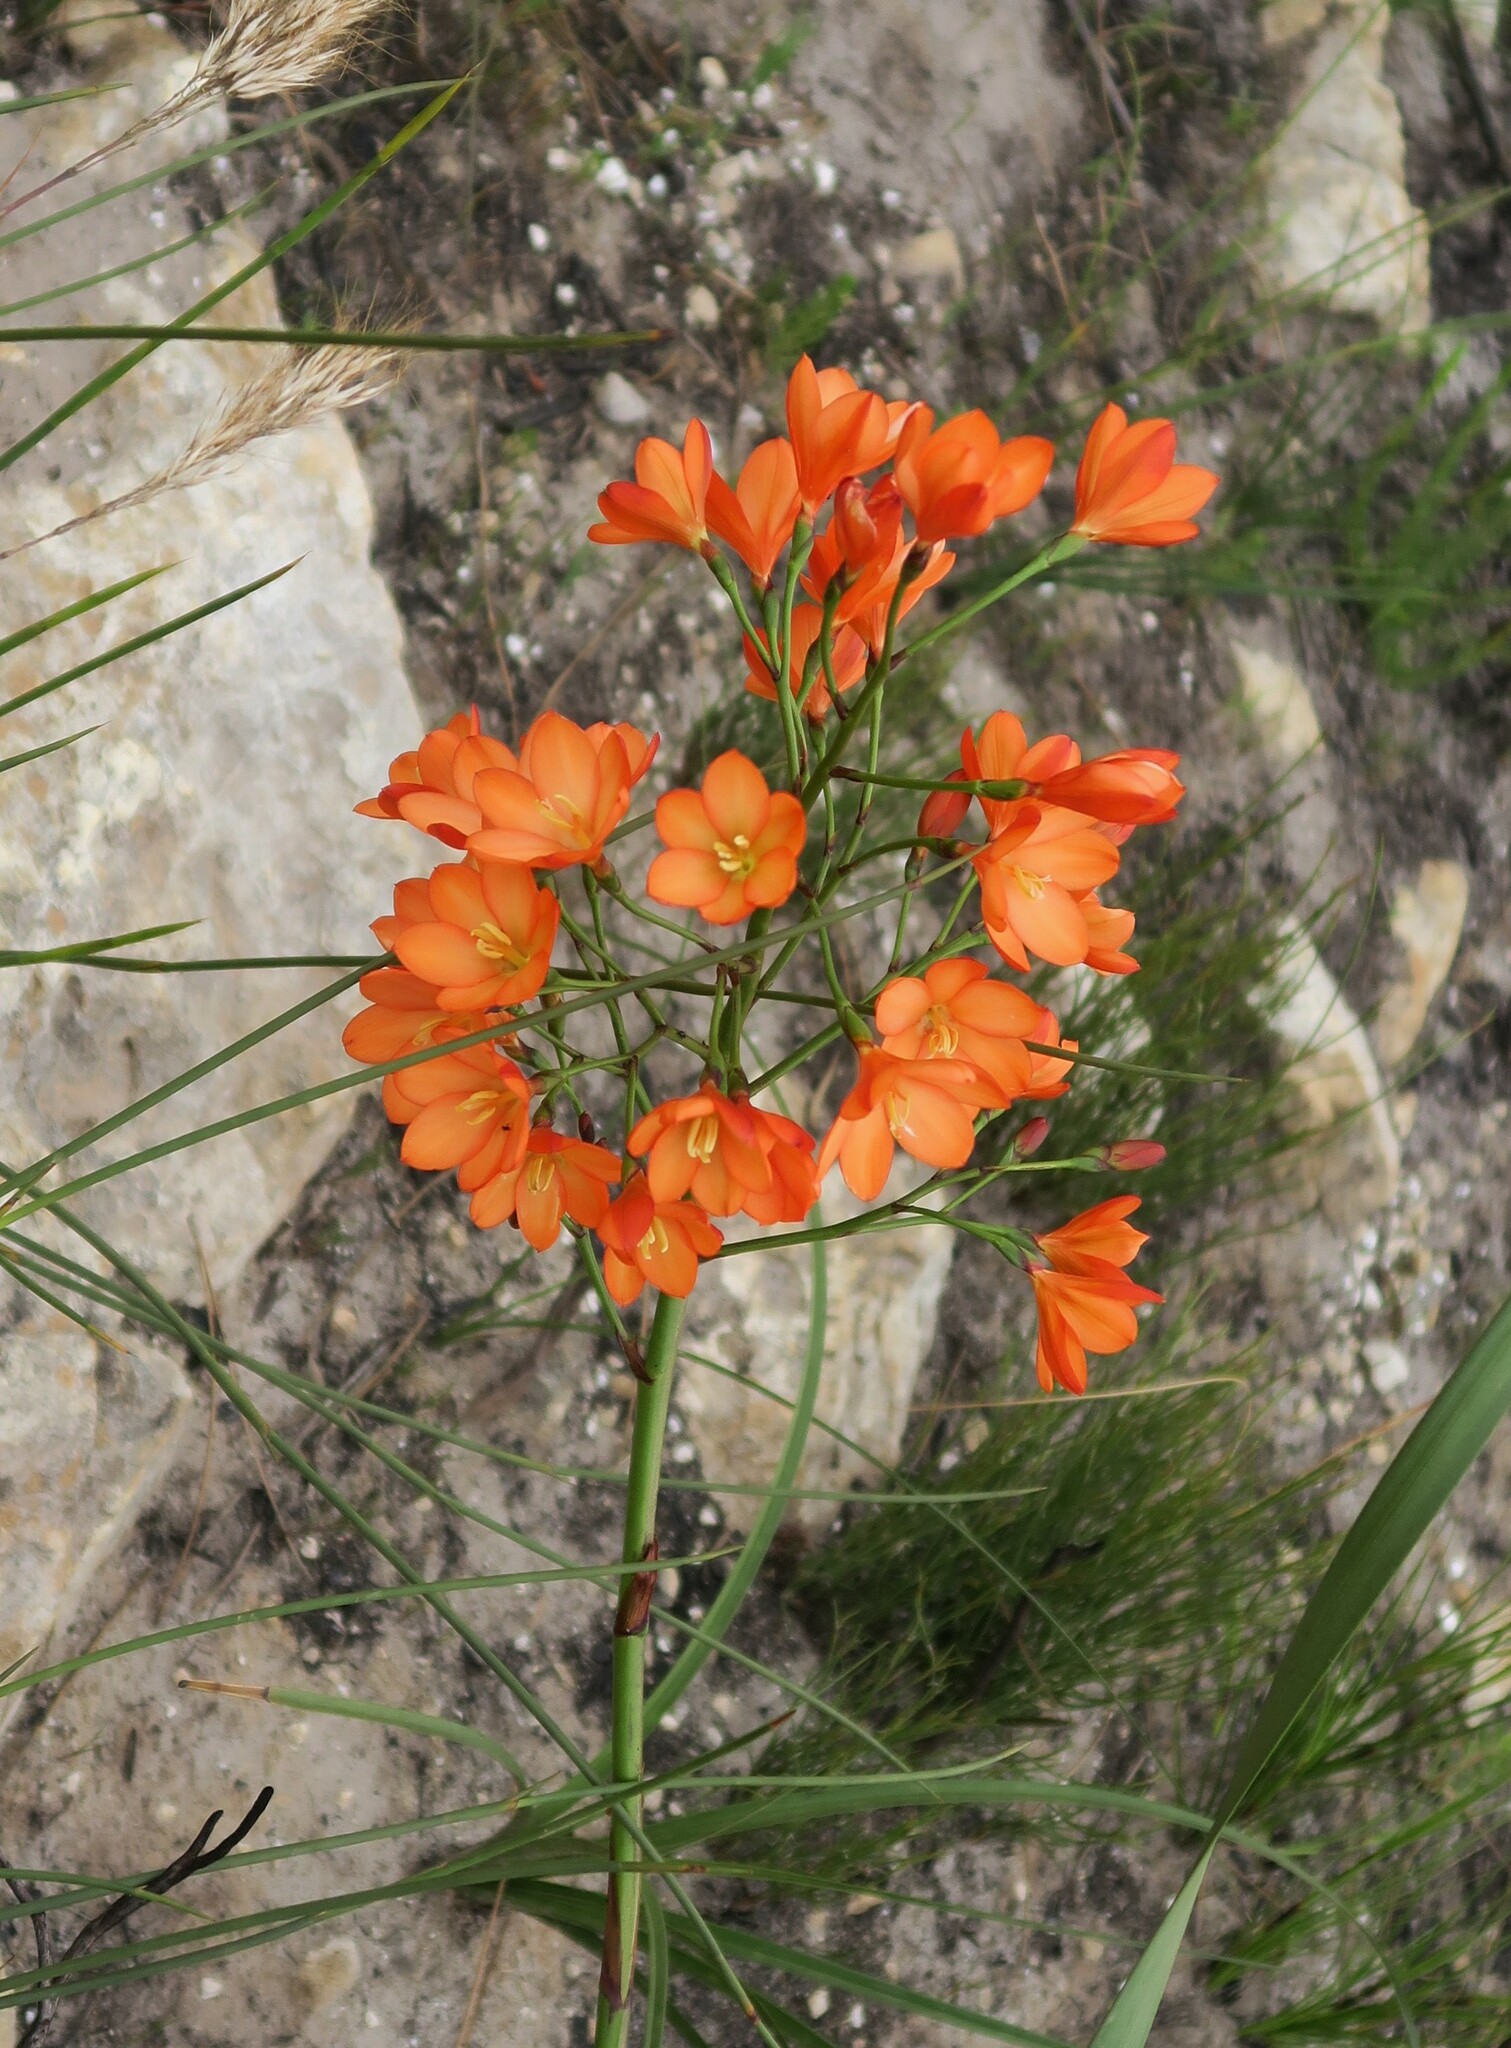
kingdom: Plantae
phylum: Tracheophyta
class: Liliopsida
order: Asparagales
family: Iridaceae
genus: Pillansia
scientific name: Pillansia templemannii
